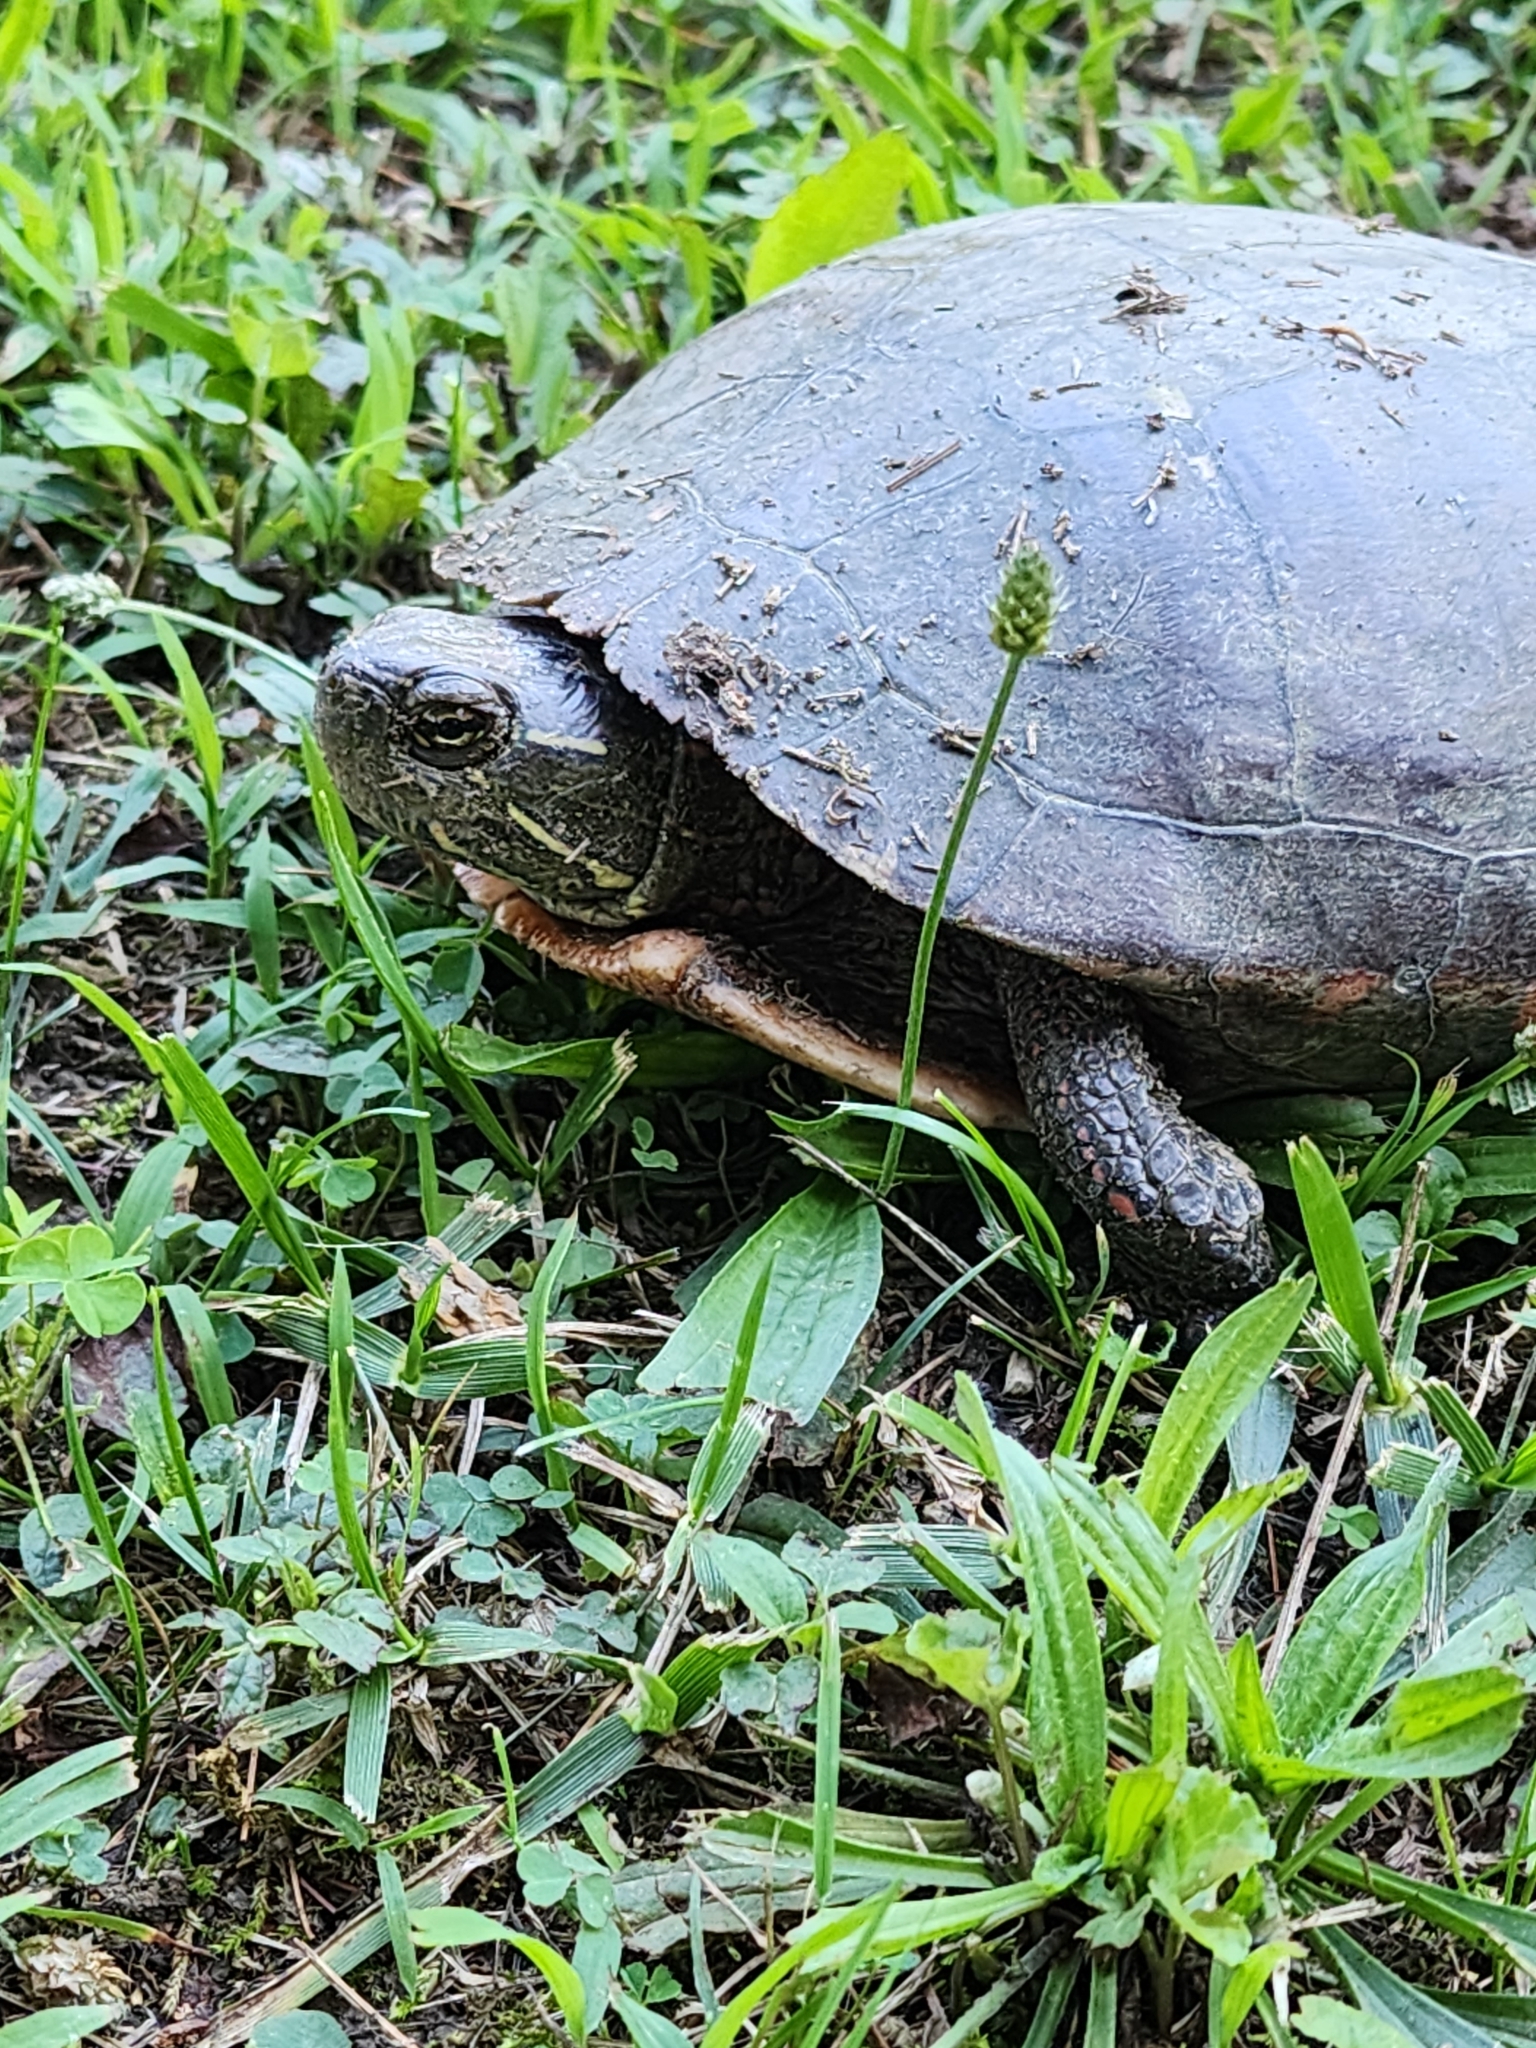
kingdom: Animalia
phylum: Chordata
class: Testudines
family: Emydidae
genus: Chrysemys
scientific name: Chrysemys picta
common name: Painted turtle
